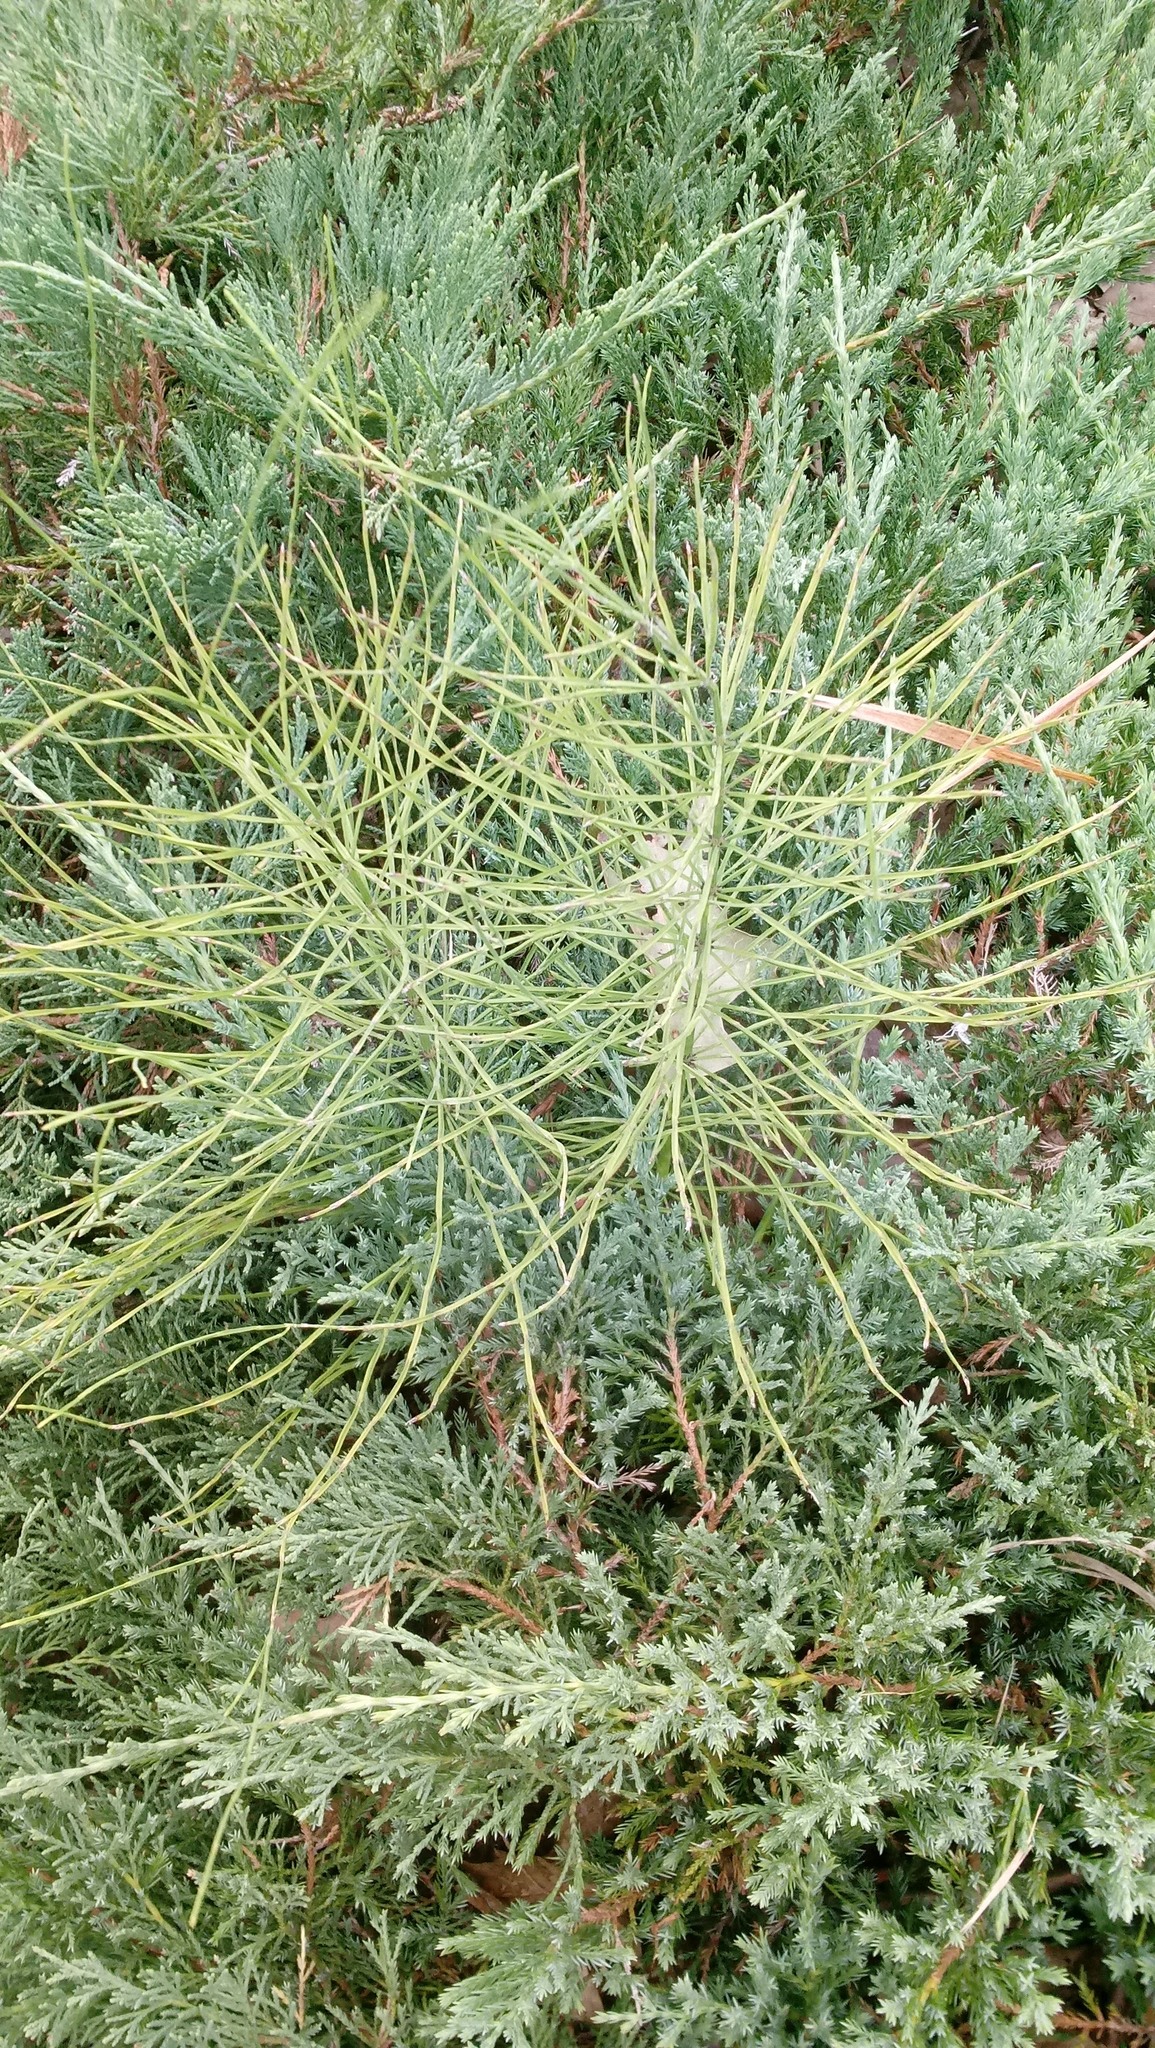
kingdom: Plantae
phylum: Tracheophyta
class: Polypodiopsida
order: Equisetales
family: Equisetaceae
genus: Equisetum
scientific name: Equisetum arvense
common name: Field horsetail
